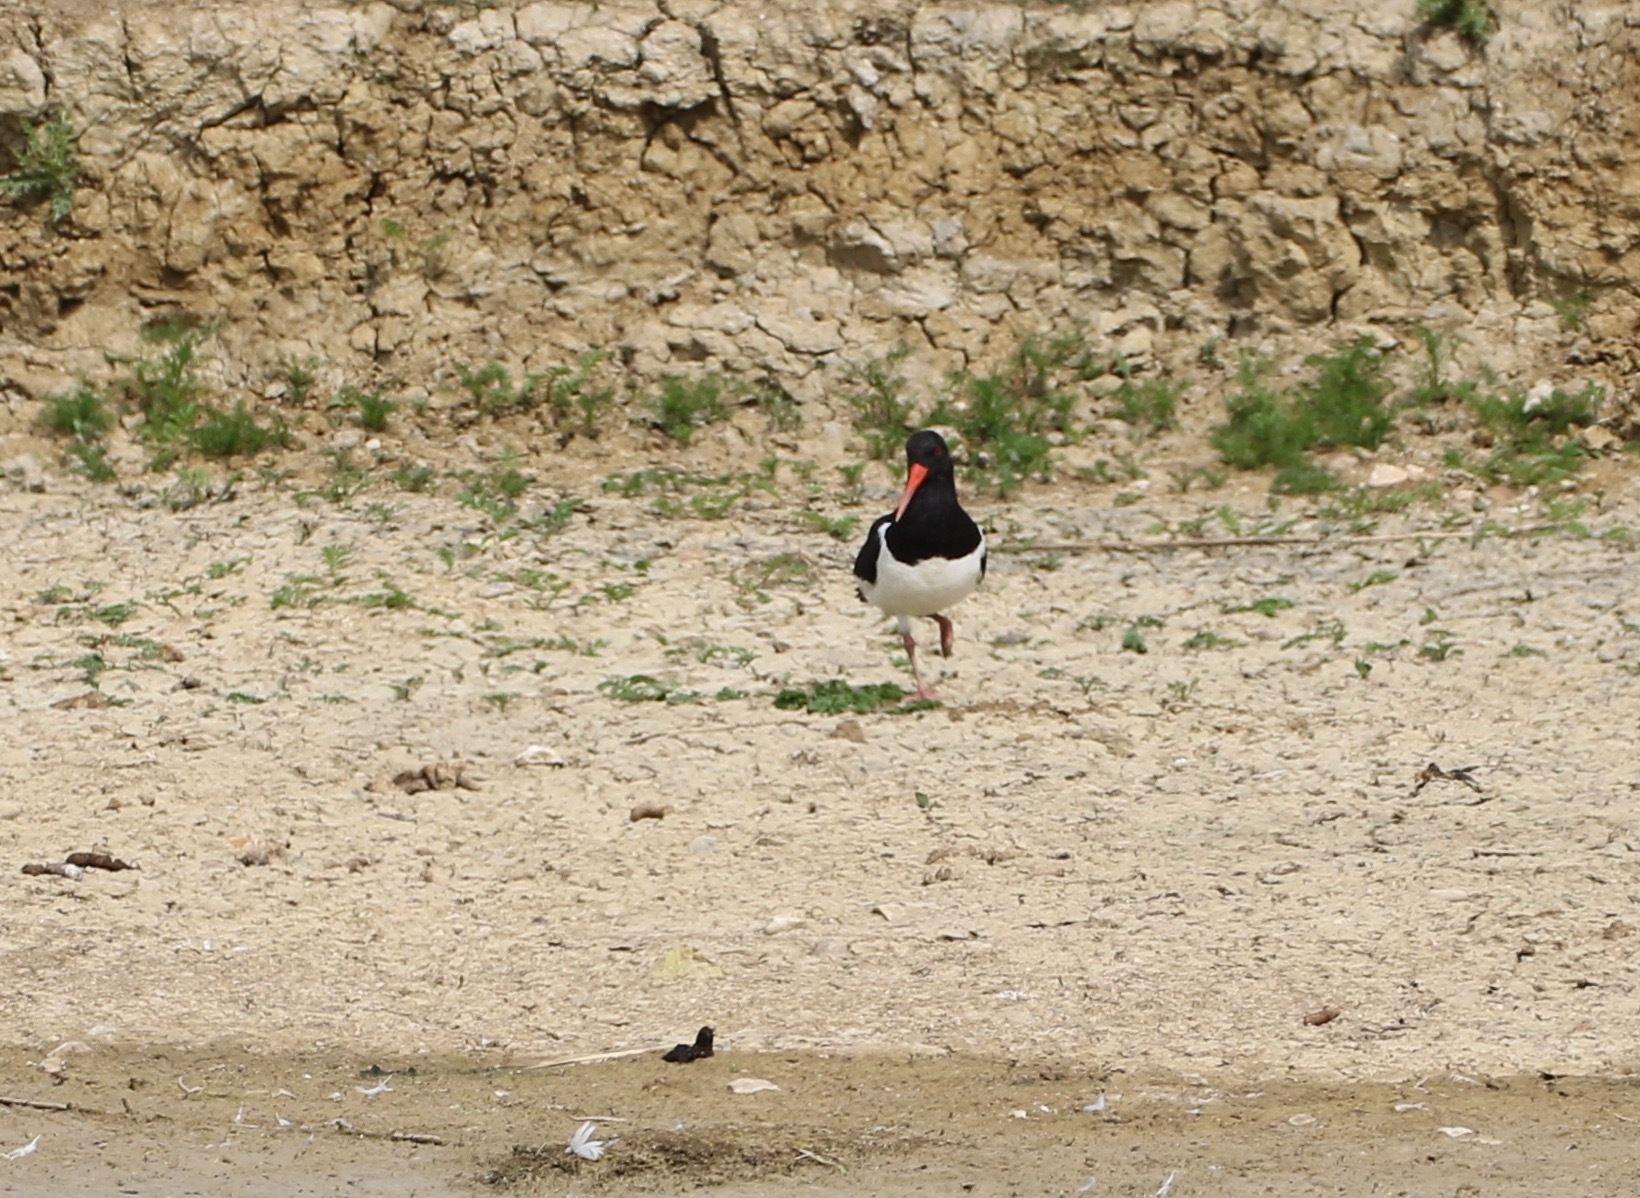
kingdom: Animalia
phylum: Chordata
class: Aves
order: Charadriiformes
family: Haematopodidae
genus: Haematopus
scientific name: Haematopus ostralegus
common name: Eurasian oystercatcher
